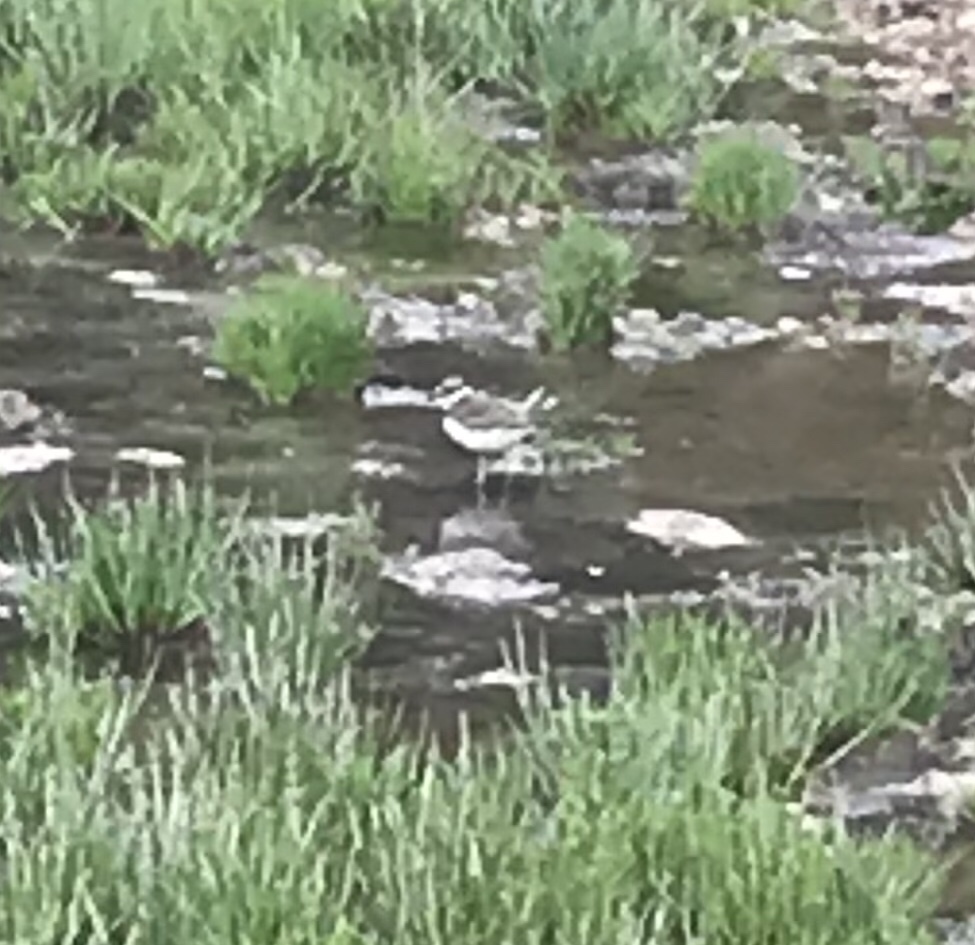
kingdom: Animalia
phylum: Chordata
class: Aves
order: Charadriiformes
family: Charadriidae
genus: Charadrius
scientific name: Charadrius vociferus
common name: Killdeer
